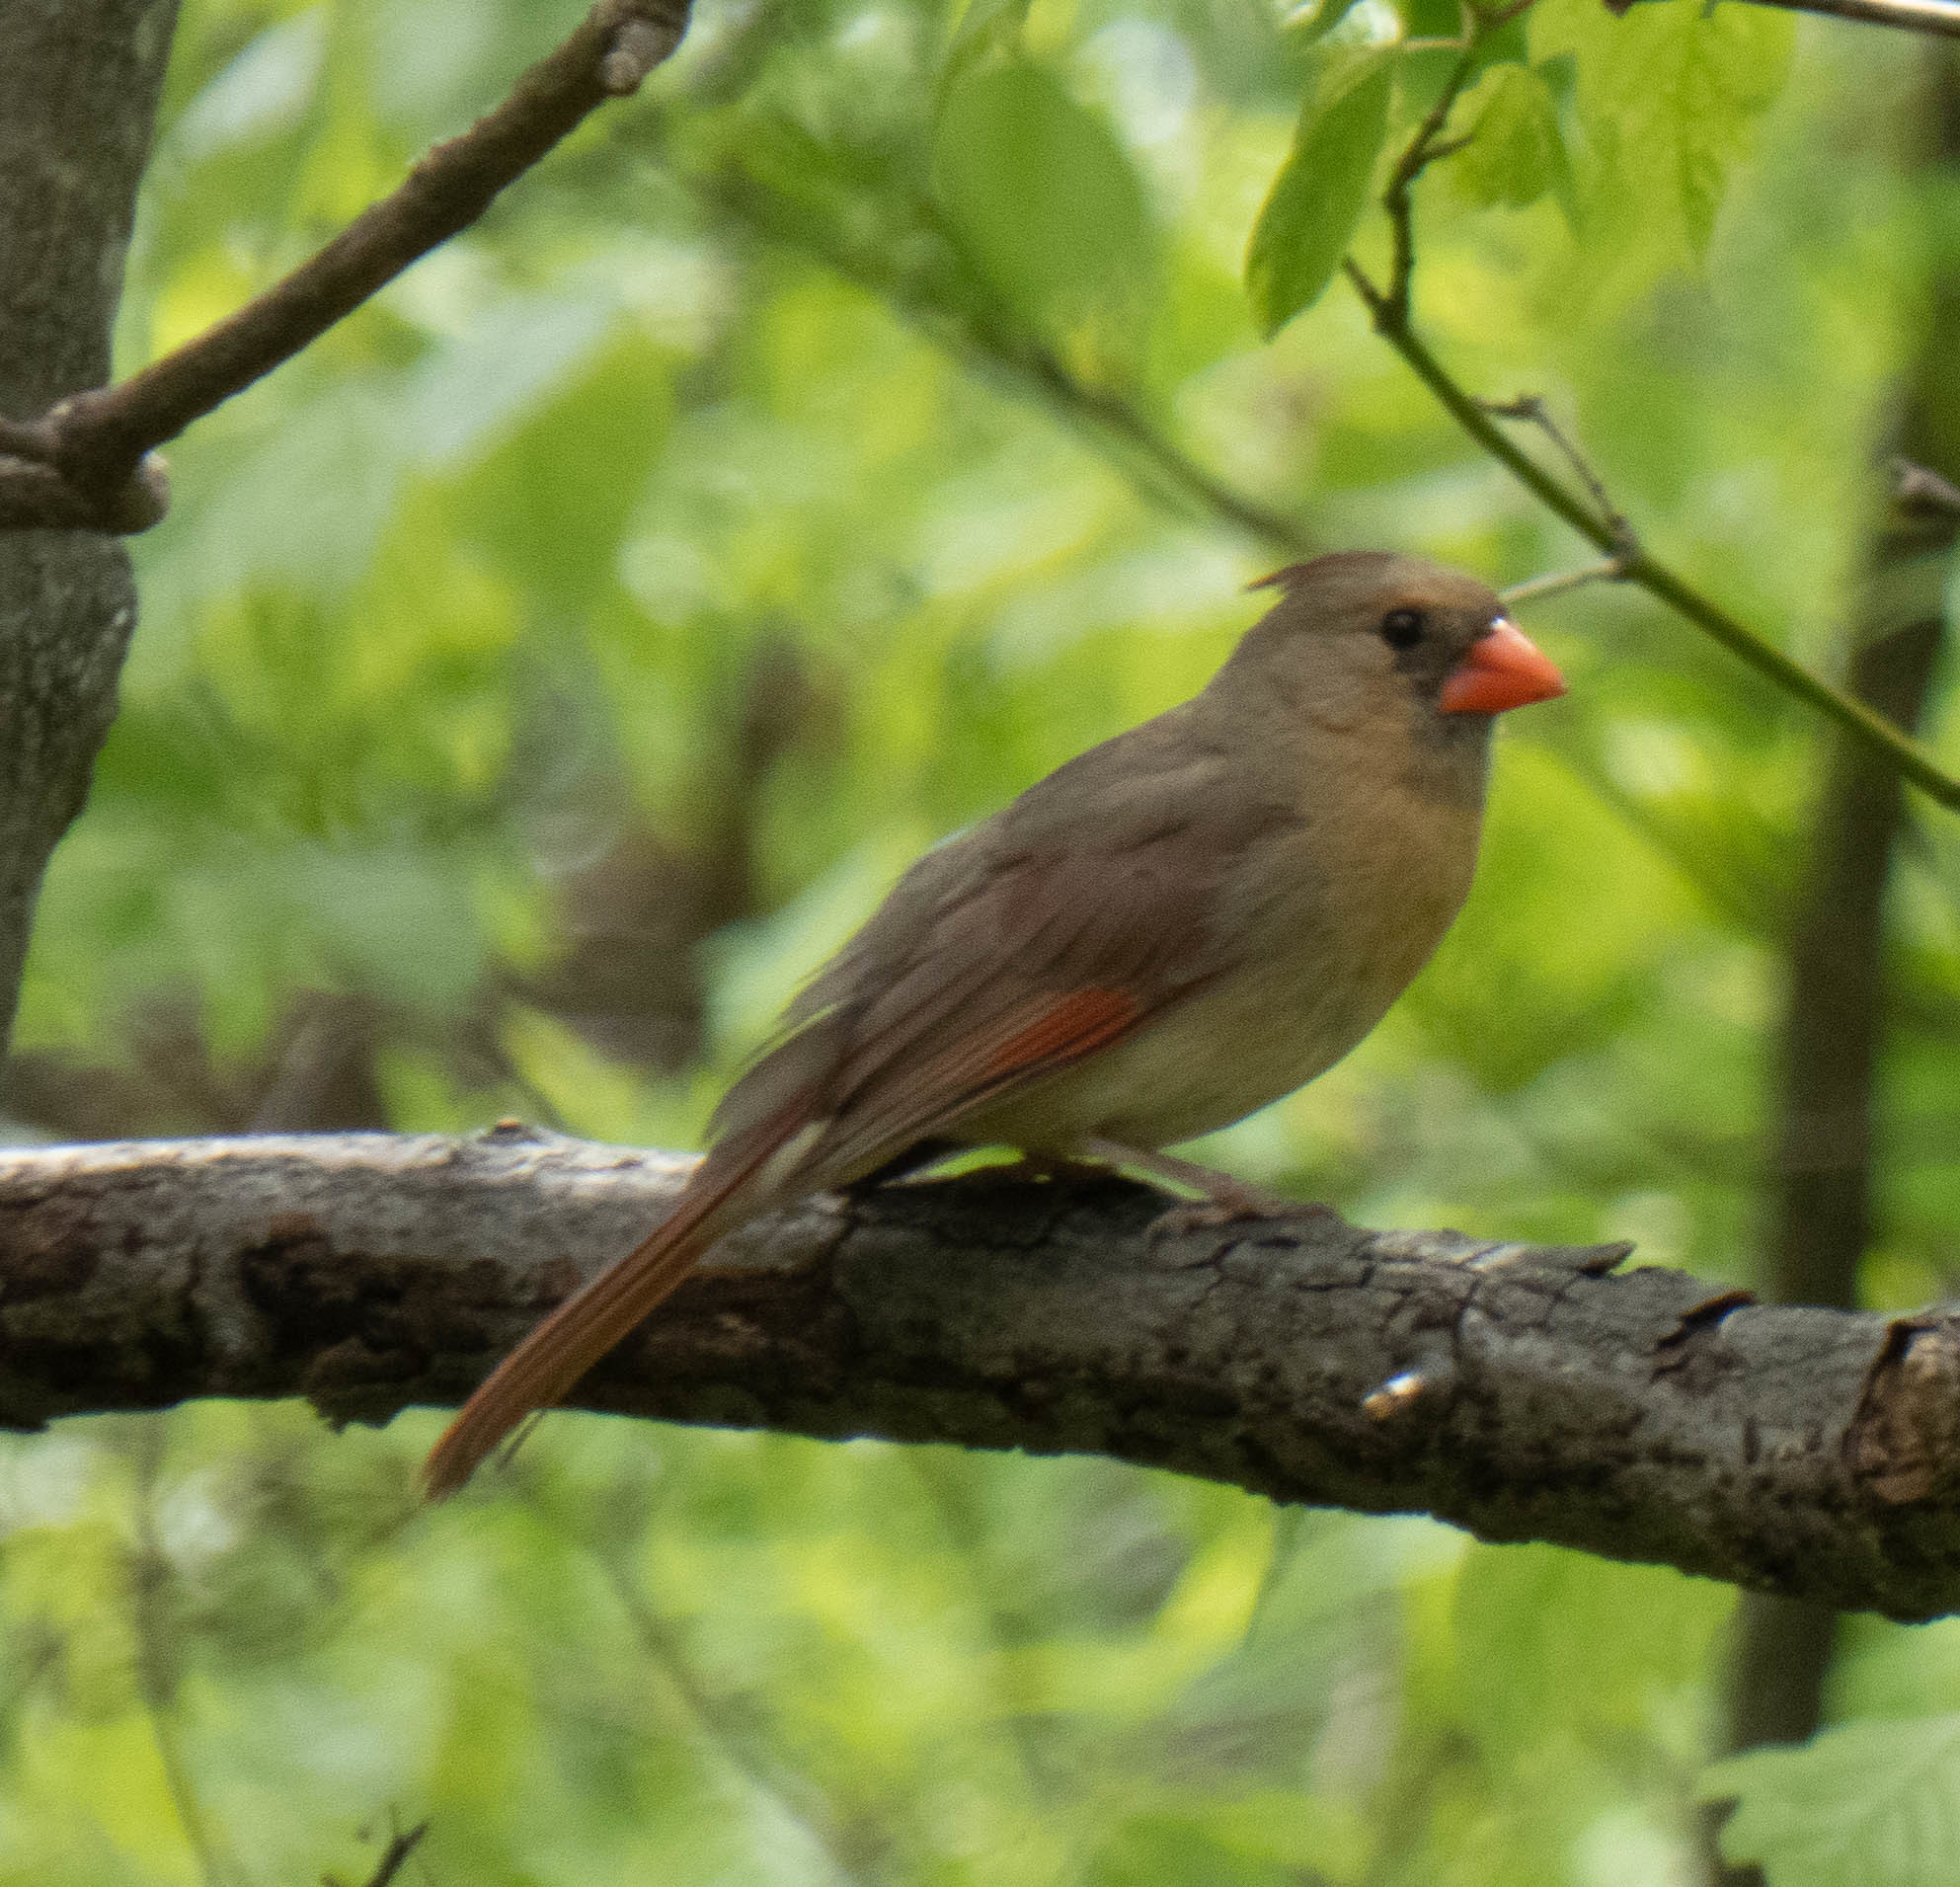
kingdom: Animalia
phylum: Chordata
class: Aves
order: Passeriformes
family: Cardinalidae
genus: Cardinalis
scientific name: Cardinalis cardinalis
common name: Northern cardinal
